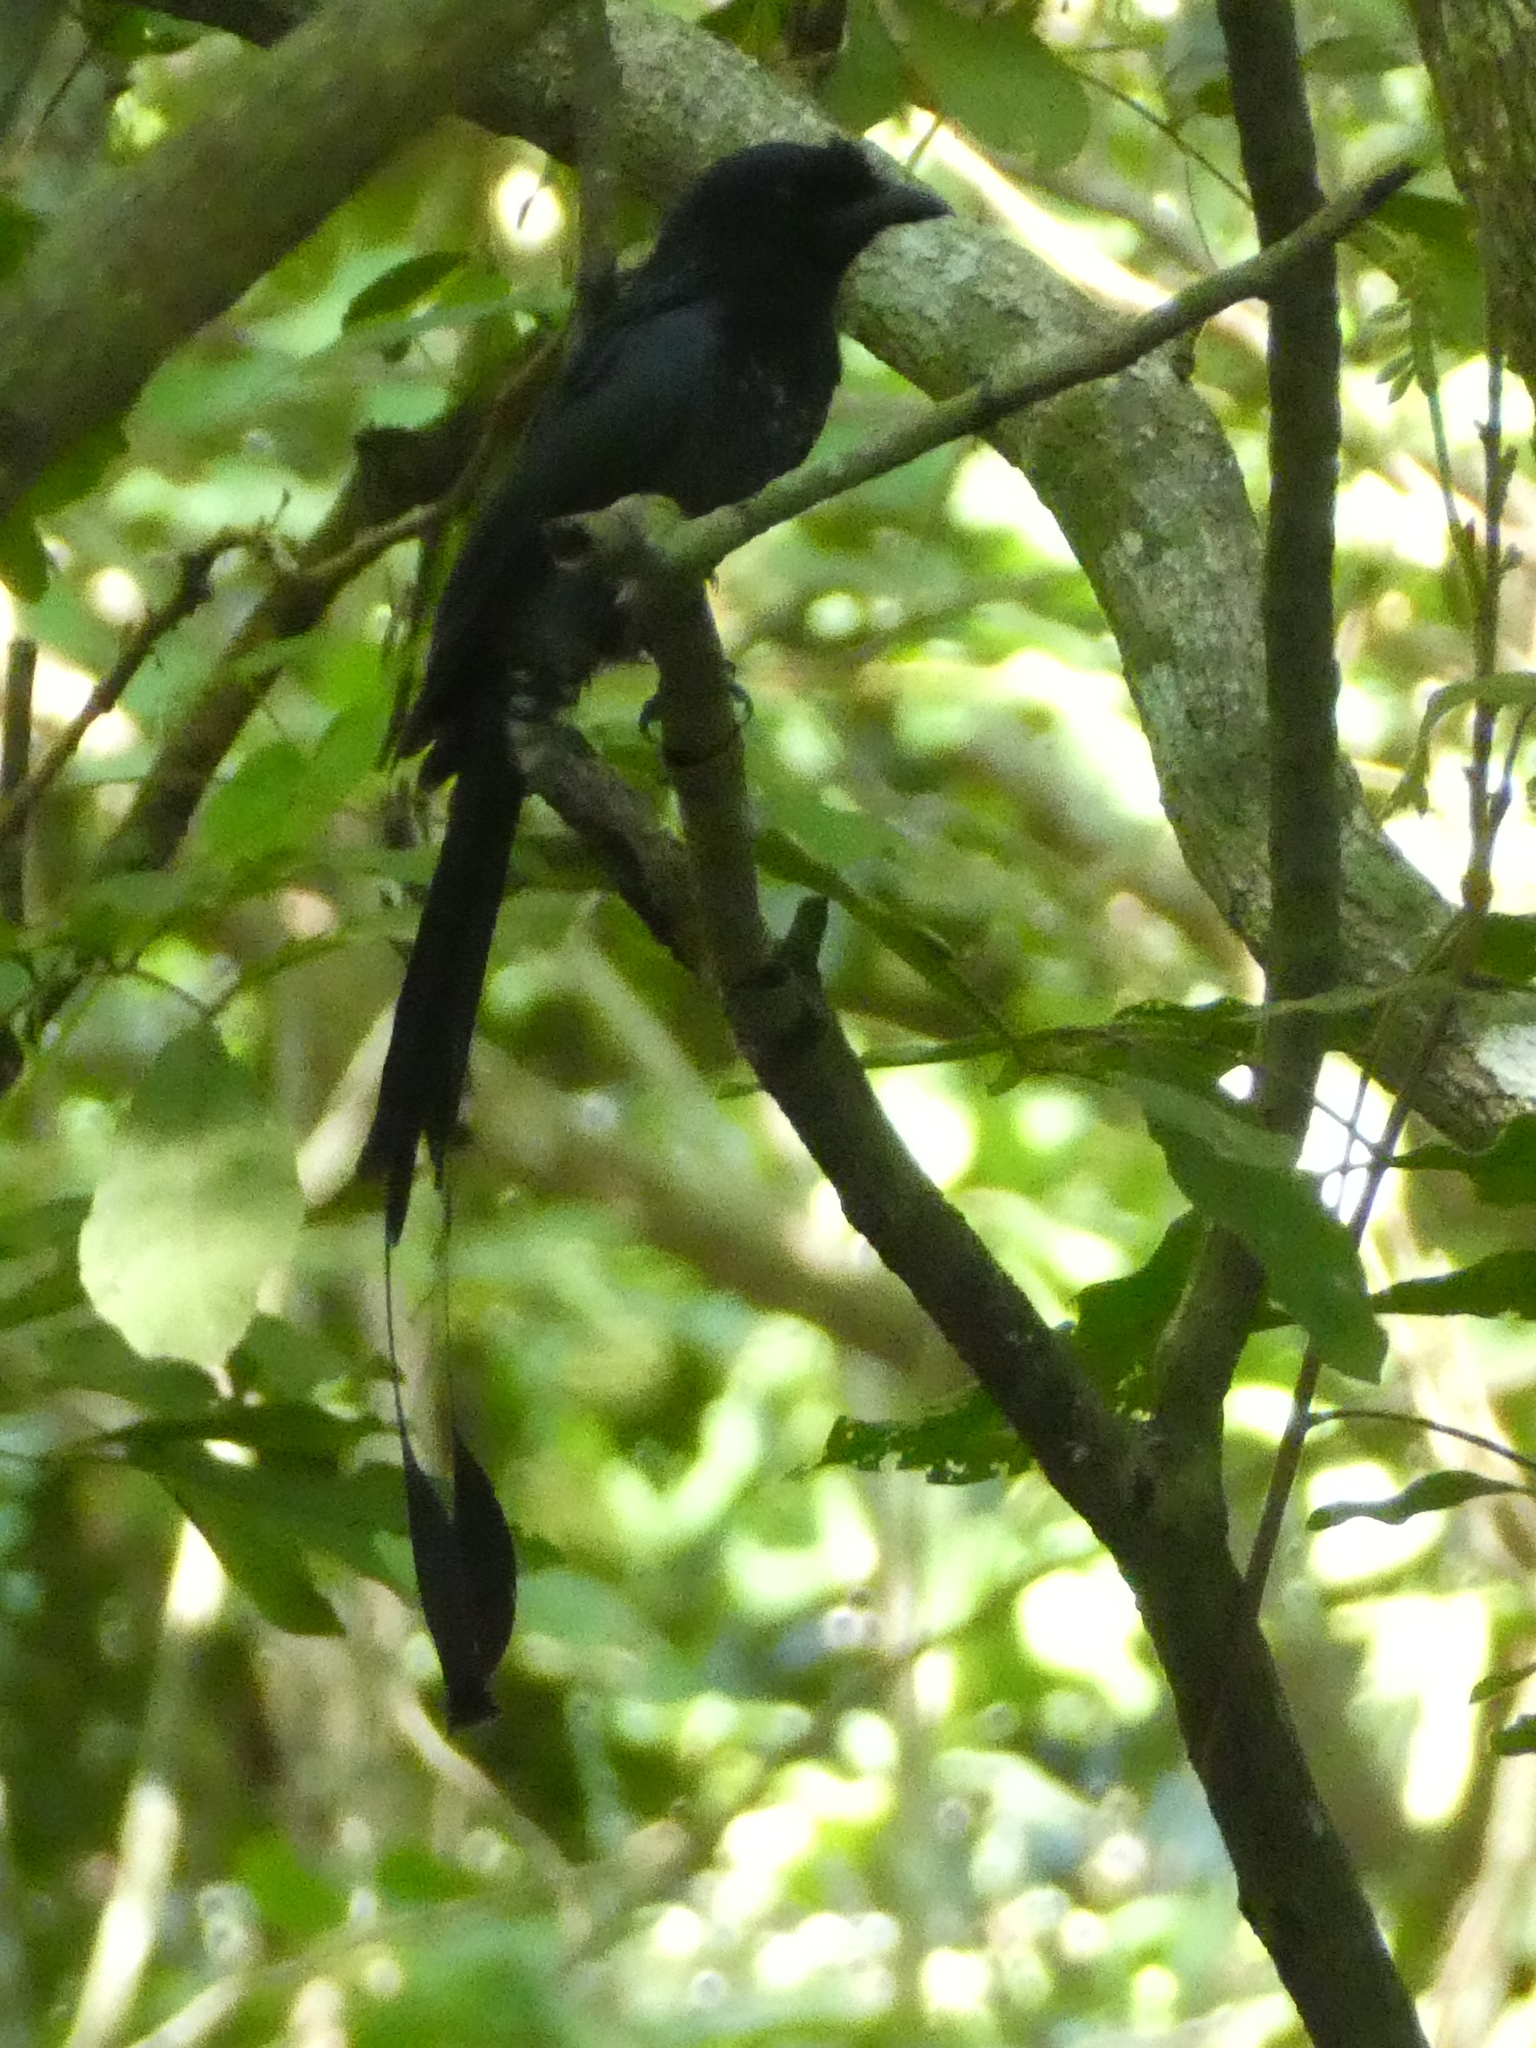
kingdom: Animalia
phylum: Chordata
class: Aves
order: Passeriformes
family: Dicruridae
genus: Dicrurus
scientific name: Dicrurus paradiseus
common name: Greater racket-tailed drongo
